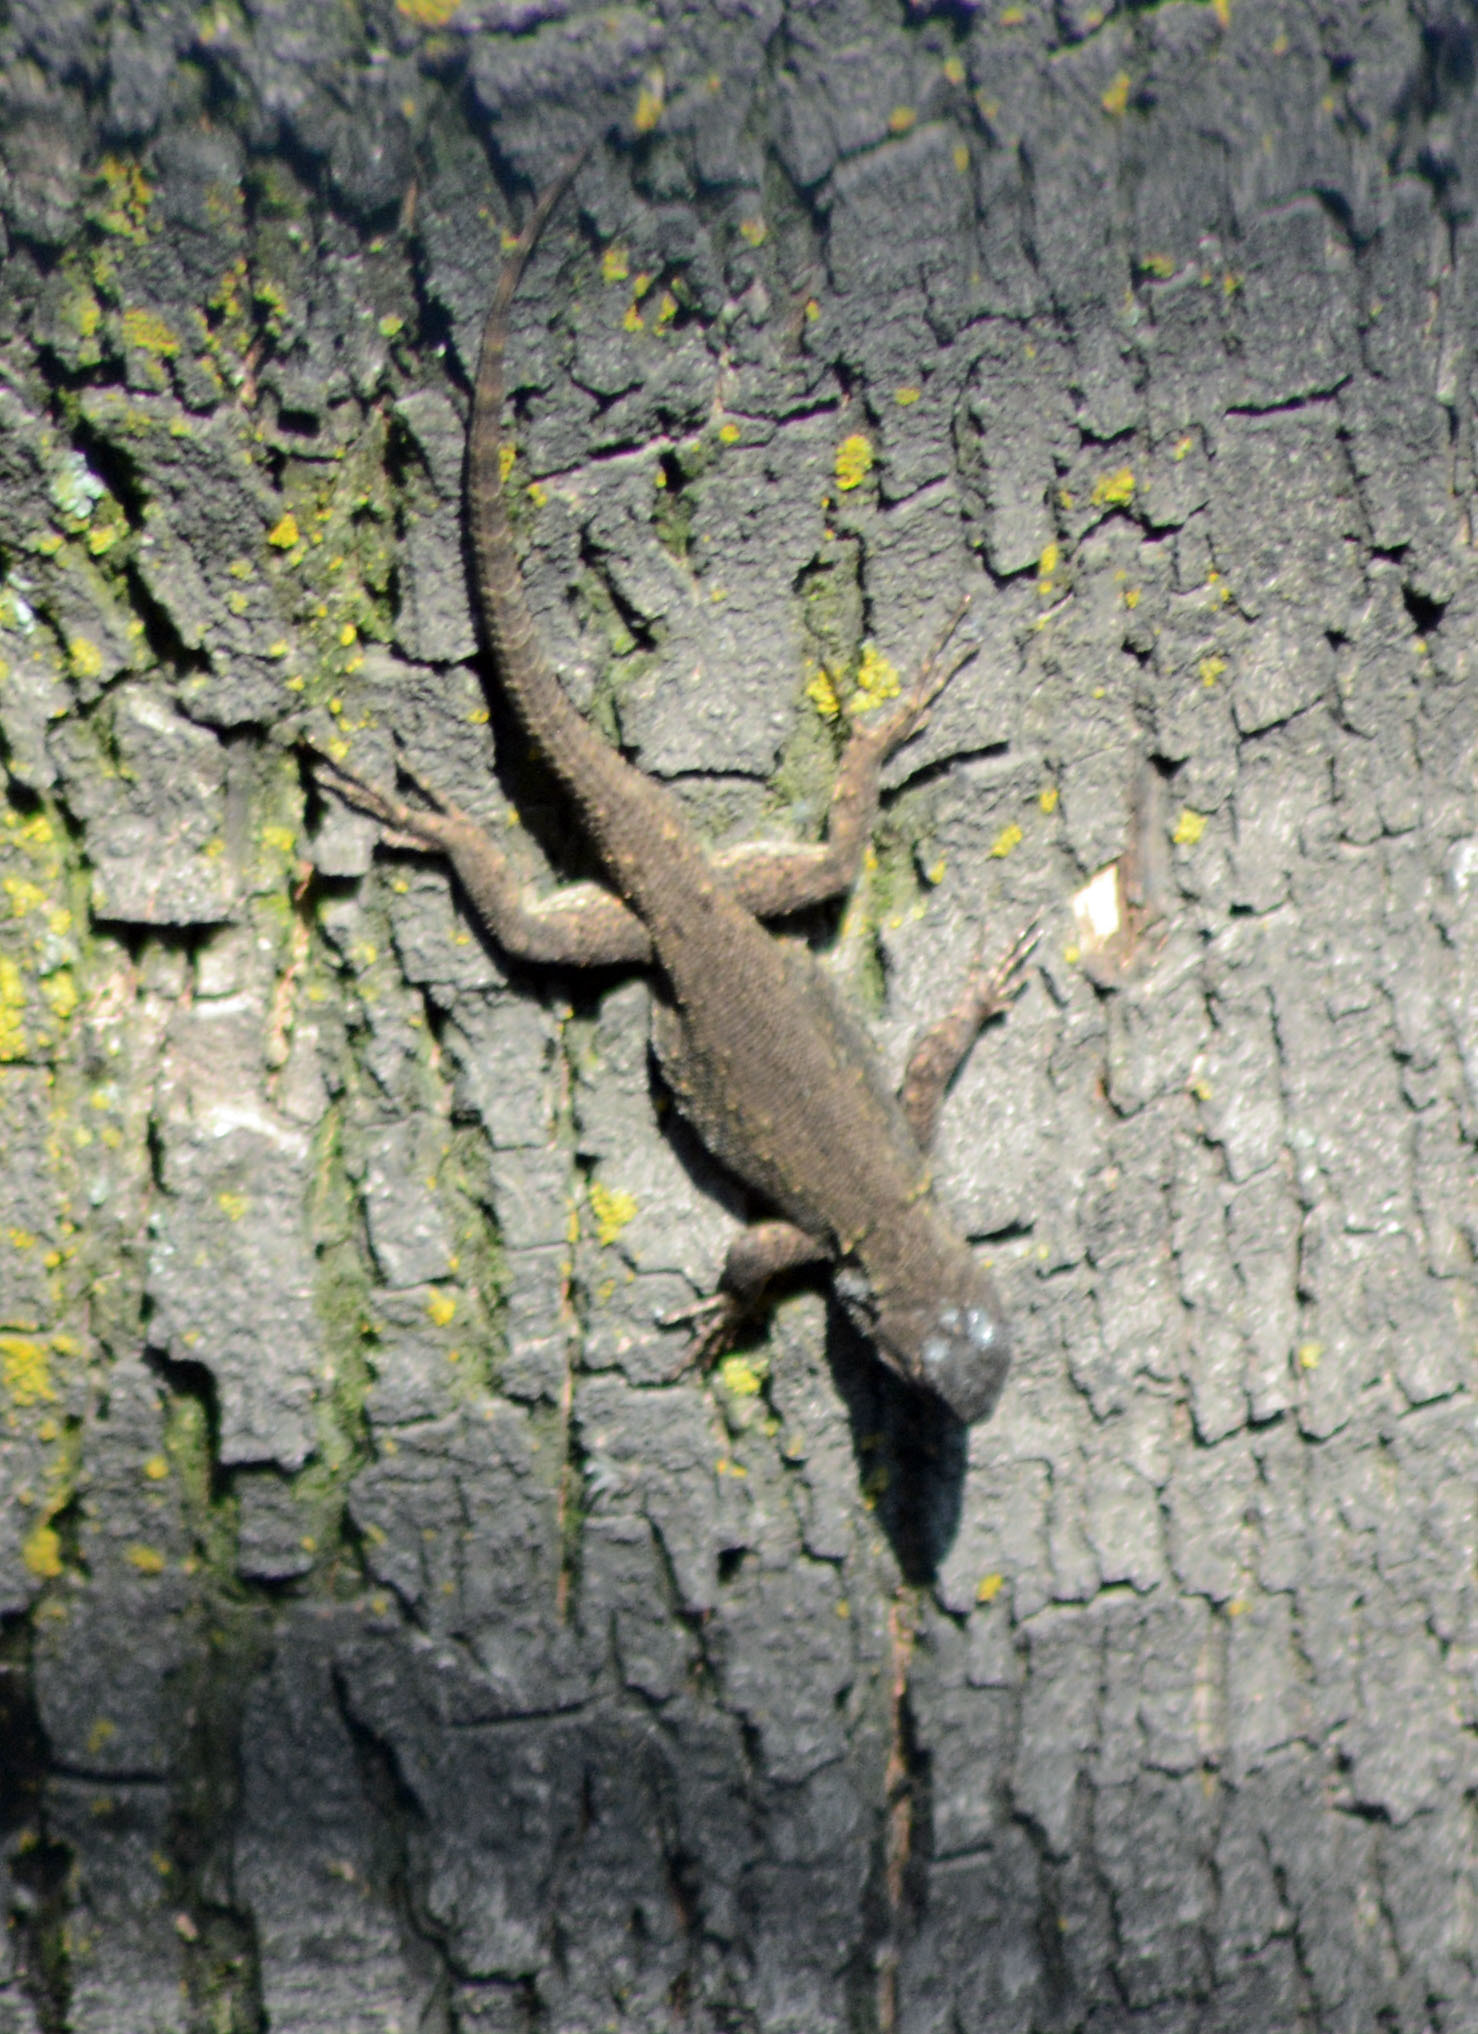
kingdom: Animalia
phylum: Chordata
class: Squamata
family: Phrynosomatidae
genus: Sceloporus
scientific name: Sceloporus grammicus
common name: Mesquite lizard
